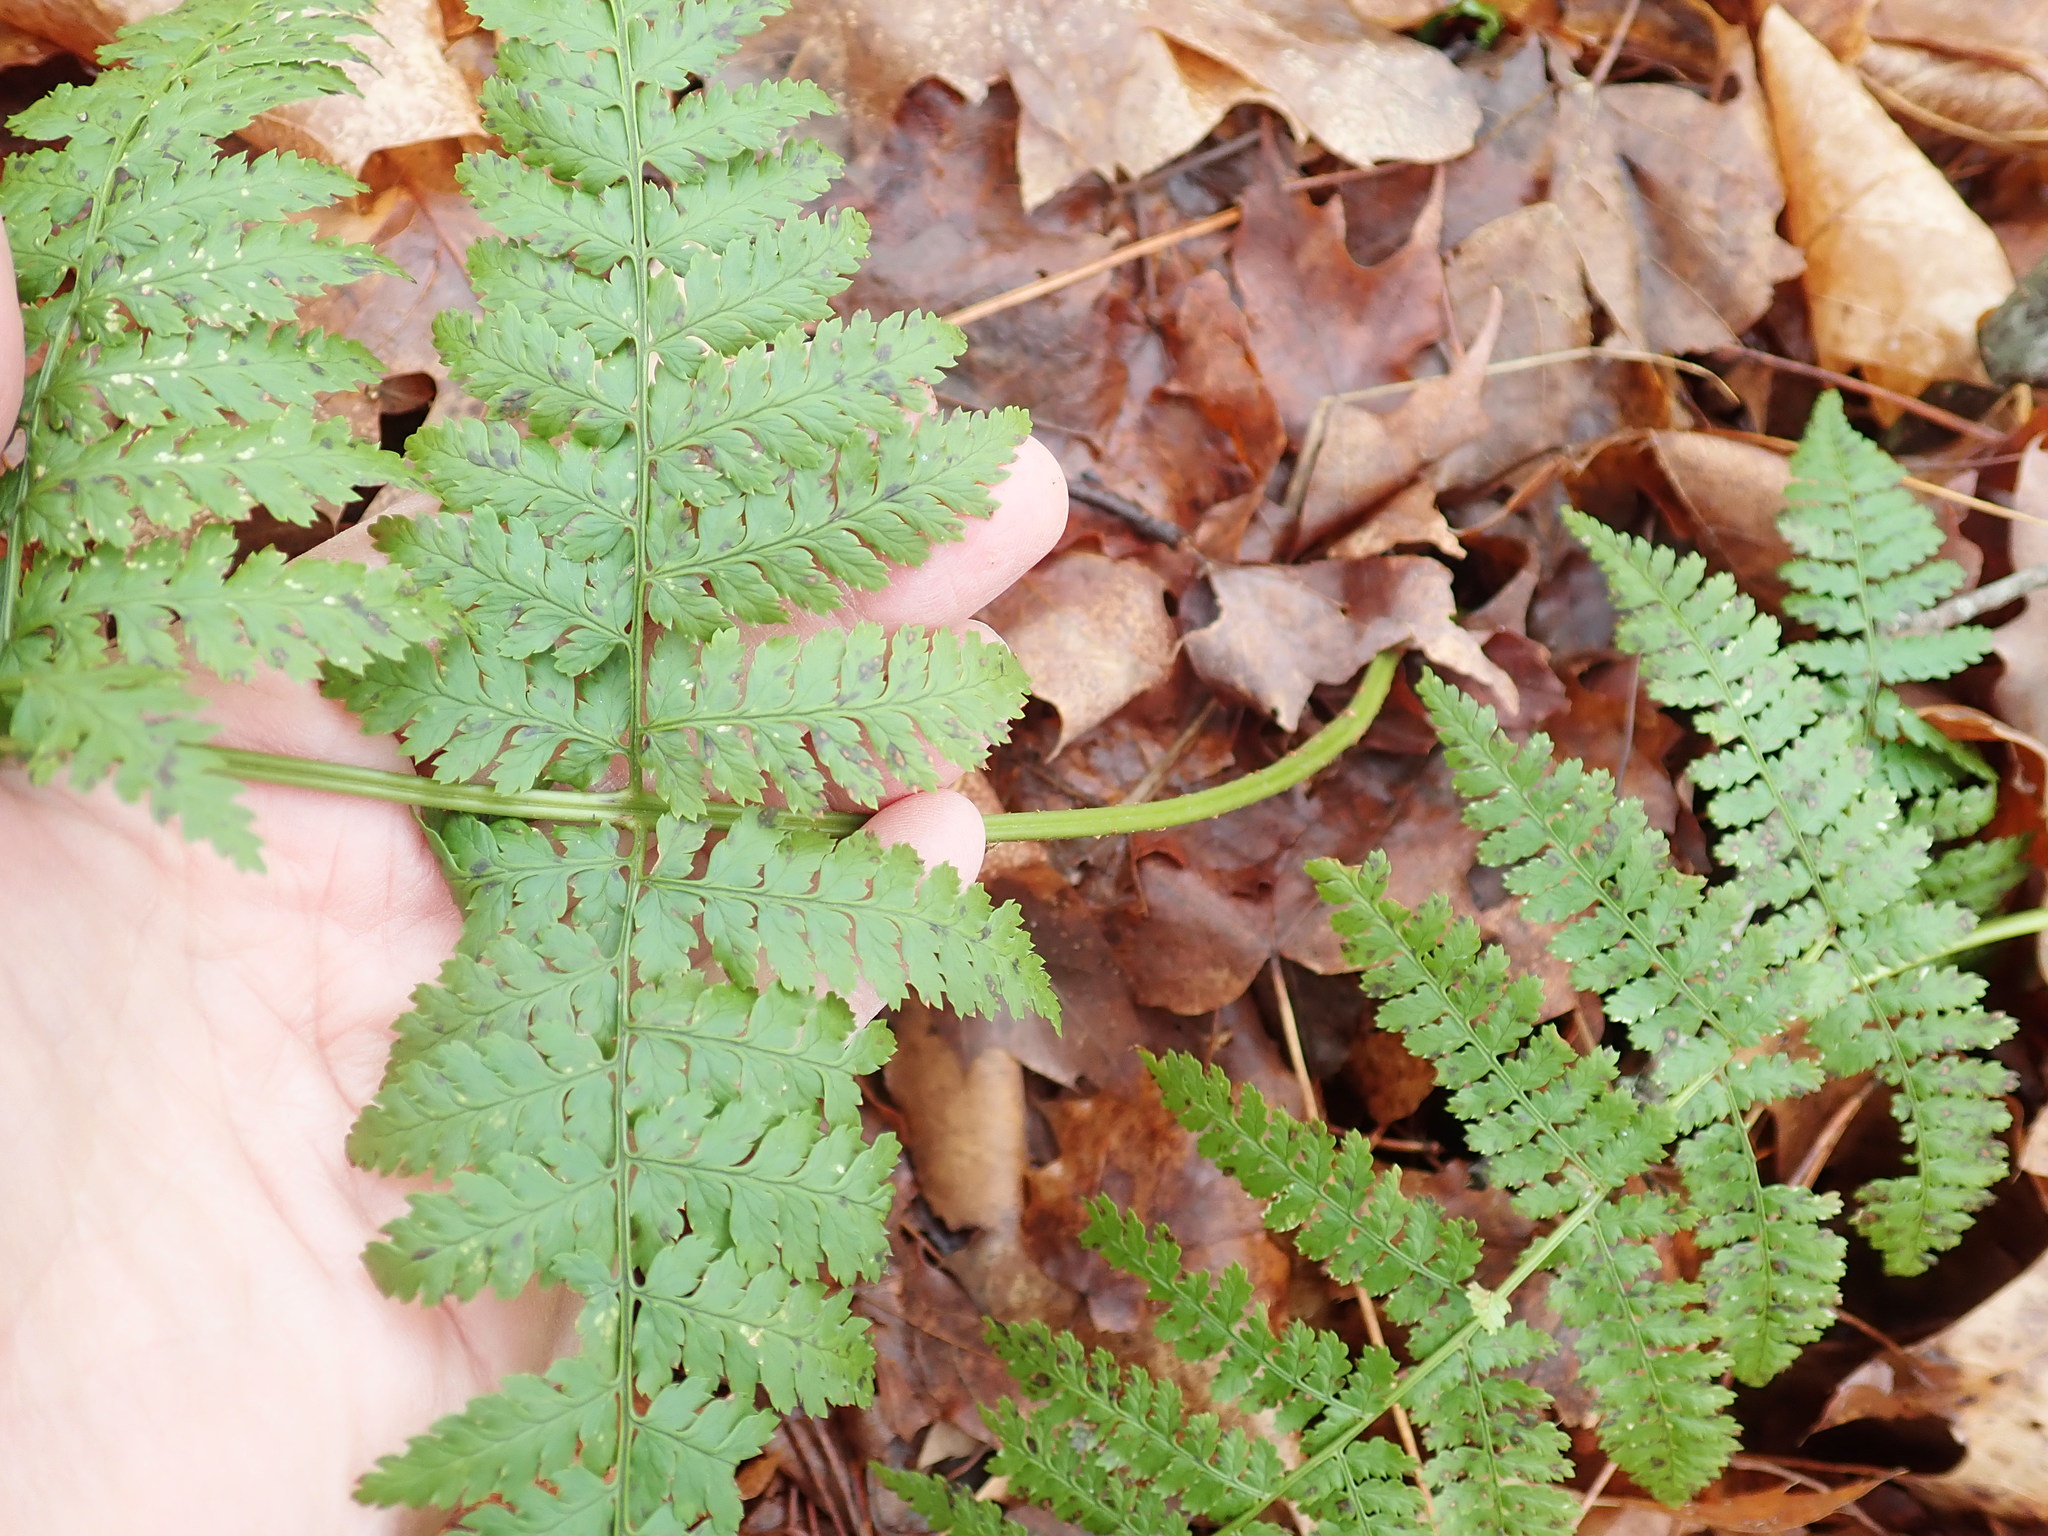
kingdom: Plantae
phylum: Tracheophyta
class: Polypodiopsida
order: Polypodiales
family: Dryopteridaceae
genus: Dryopteris
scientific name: Dryopteris intermedia
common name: Evergreen wood fern
